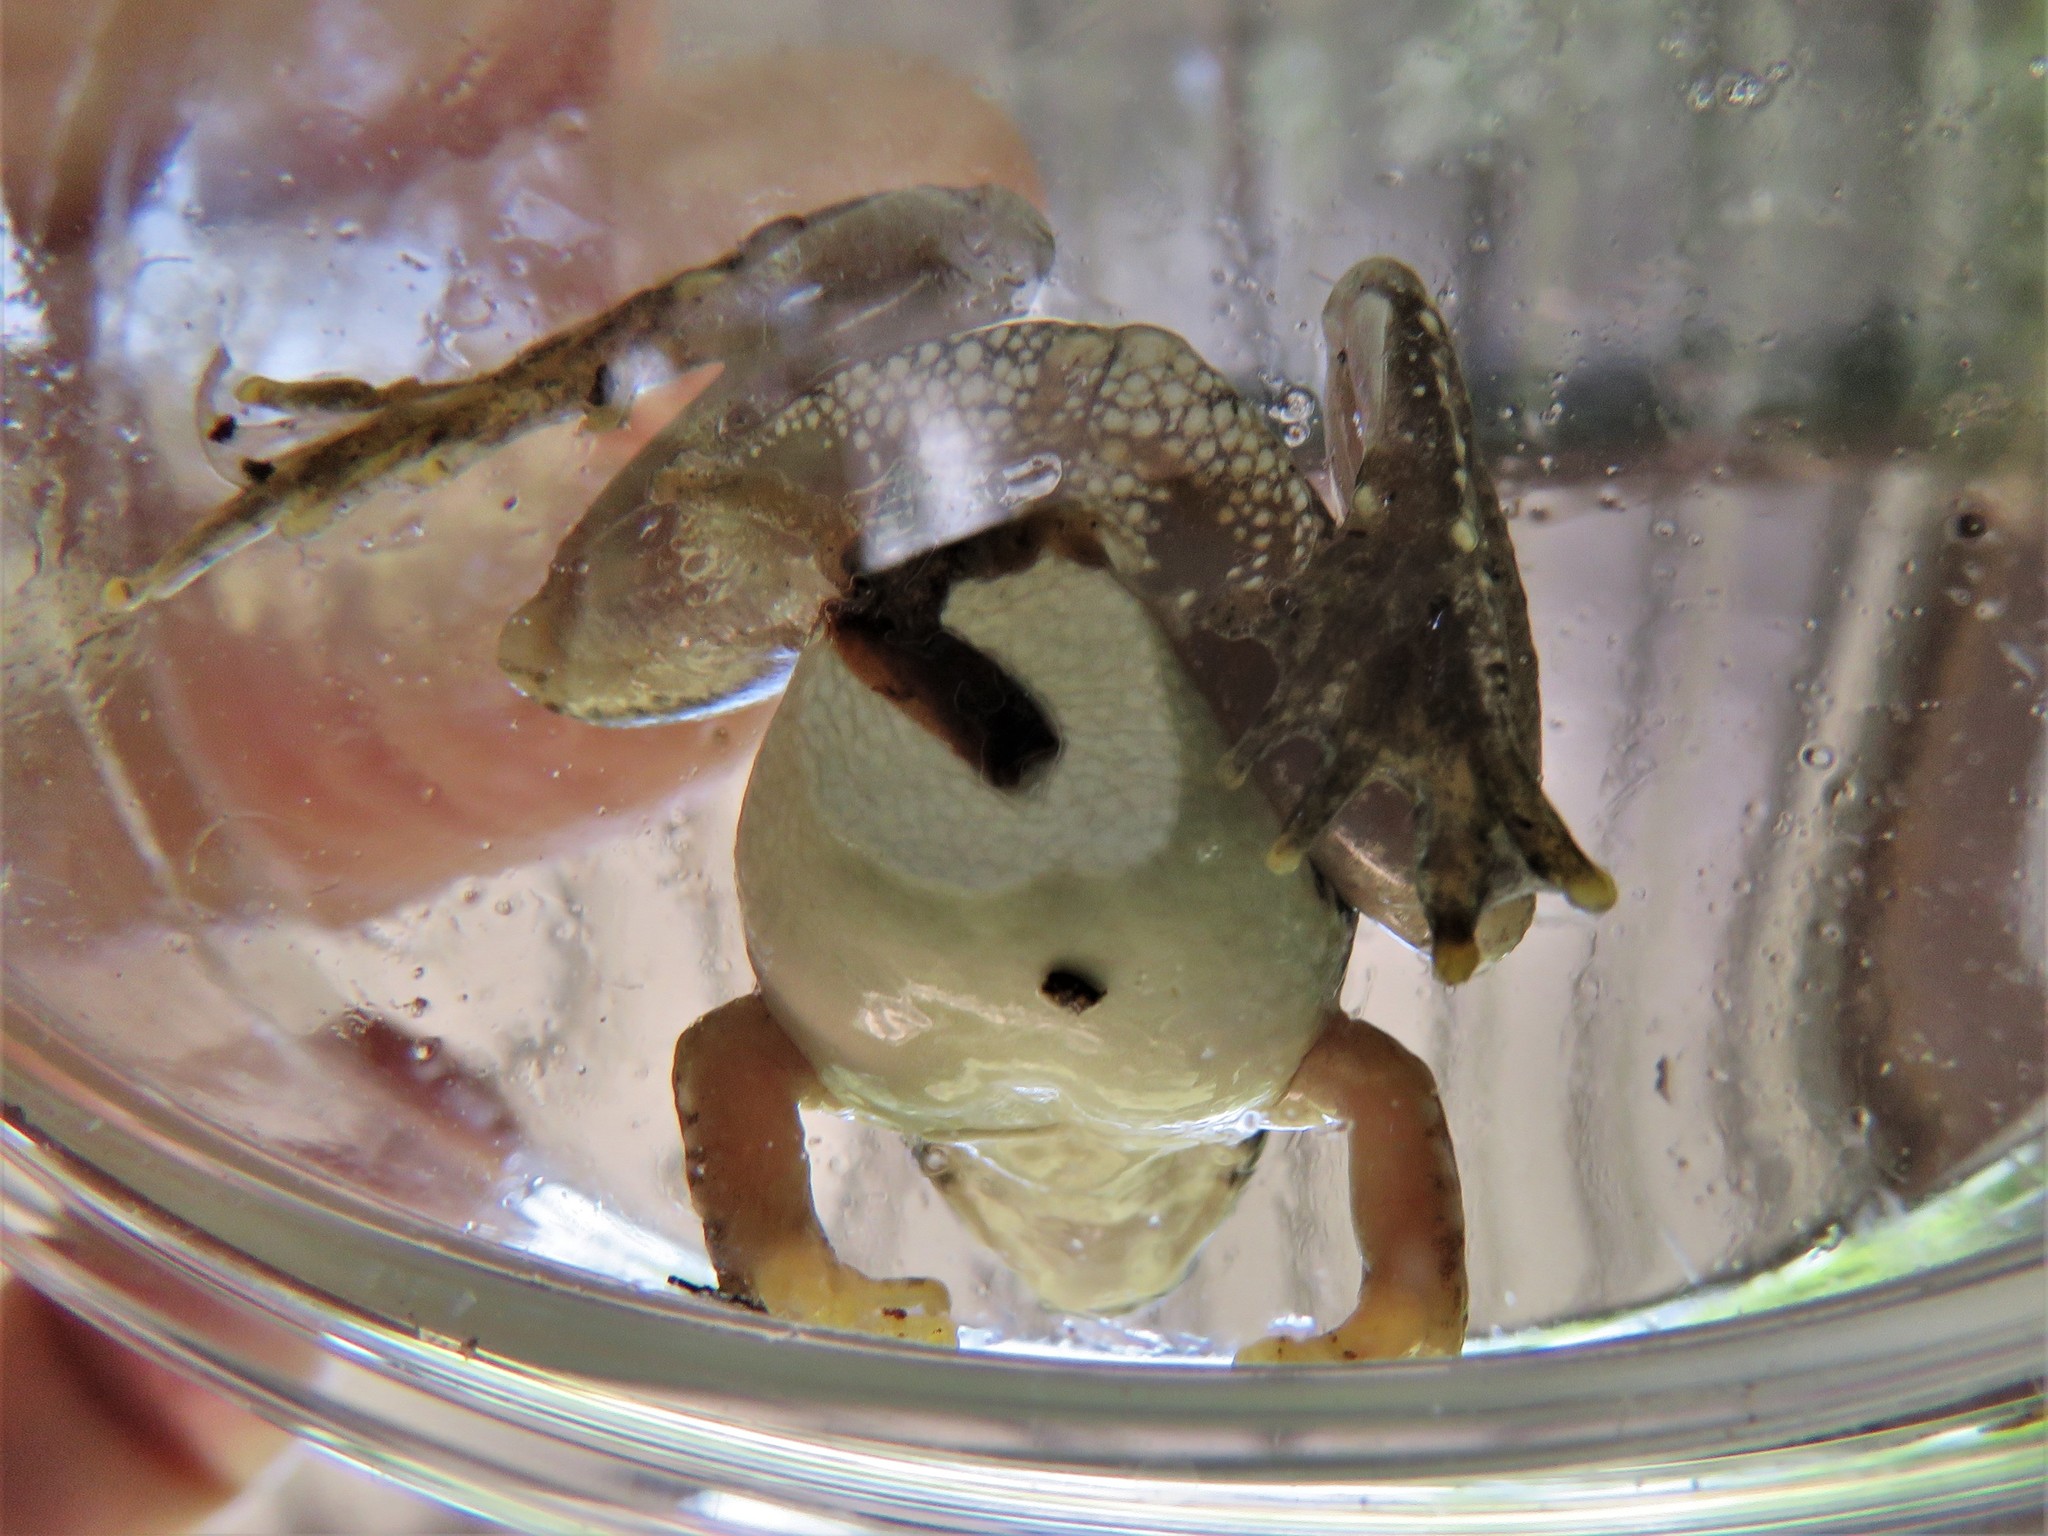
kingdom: Animalia
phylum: Chordata
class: Amphibia
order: Anura
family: Hylidae
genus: Acris
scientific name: Acris blanchardi
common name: Blanchard's cricket frog
